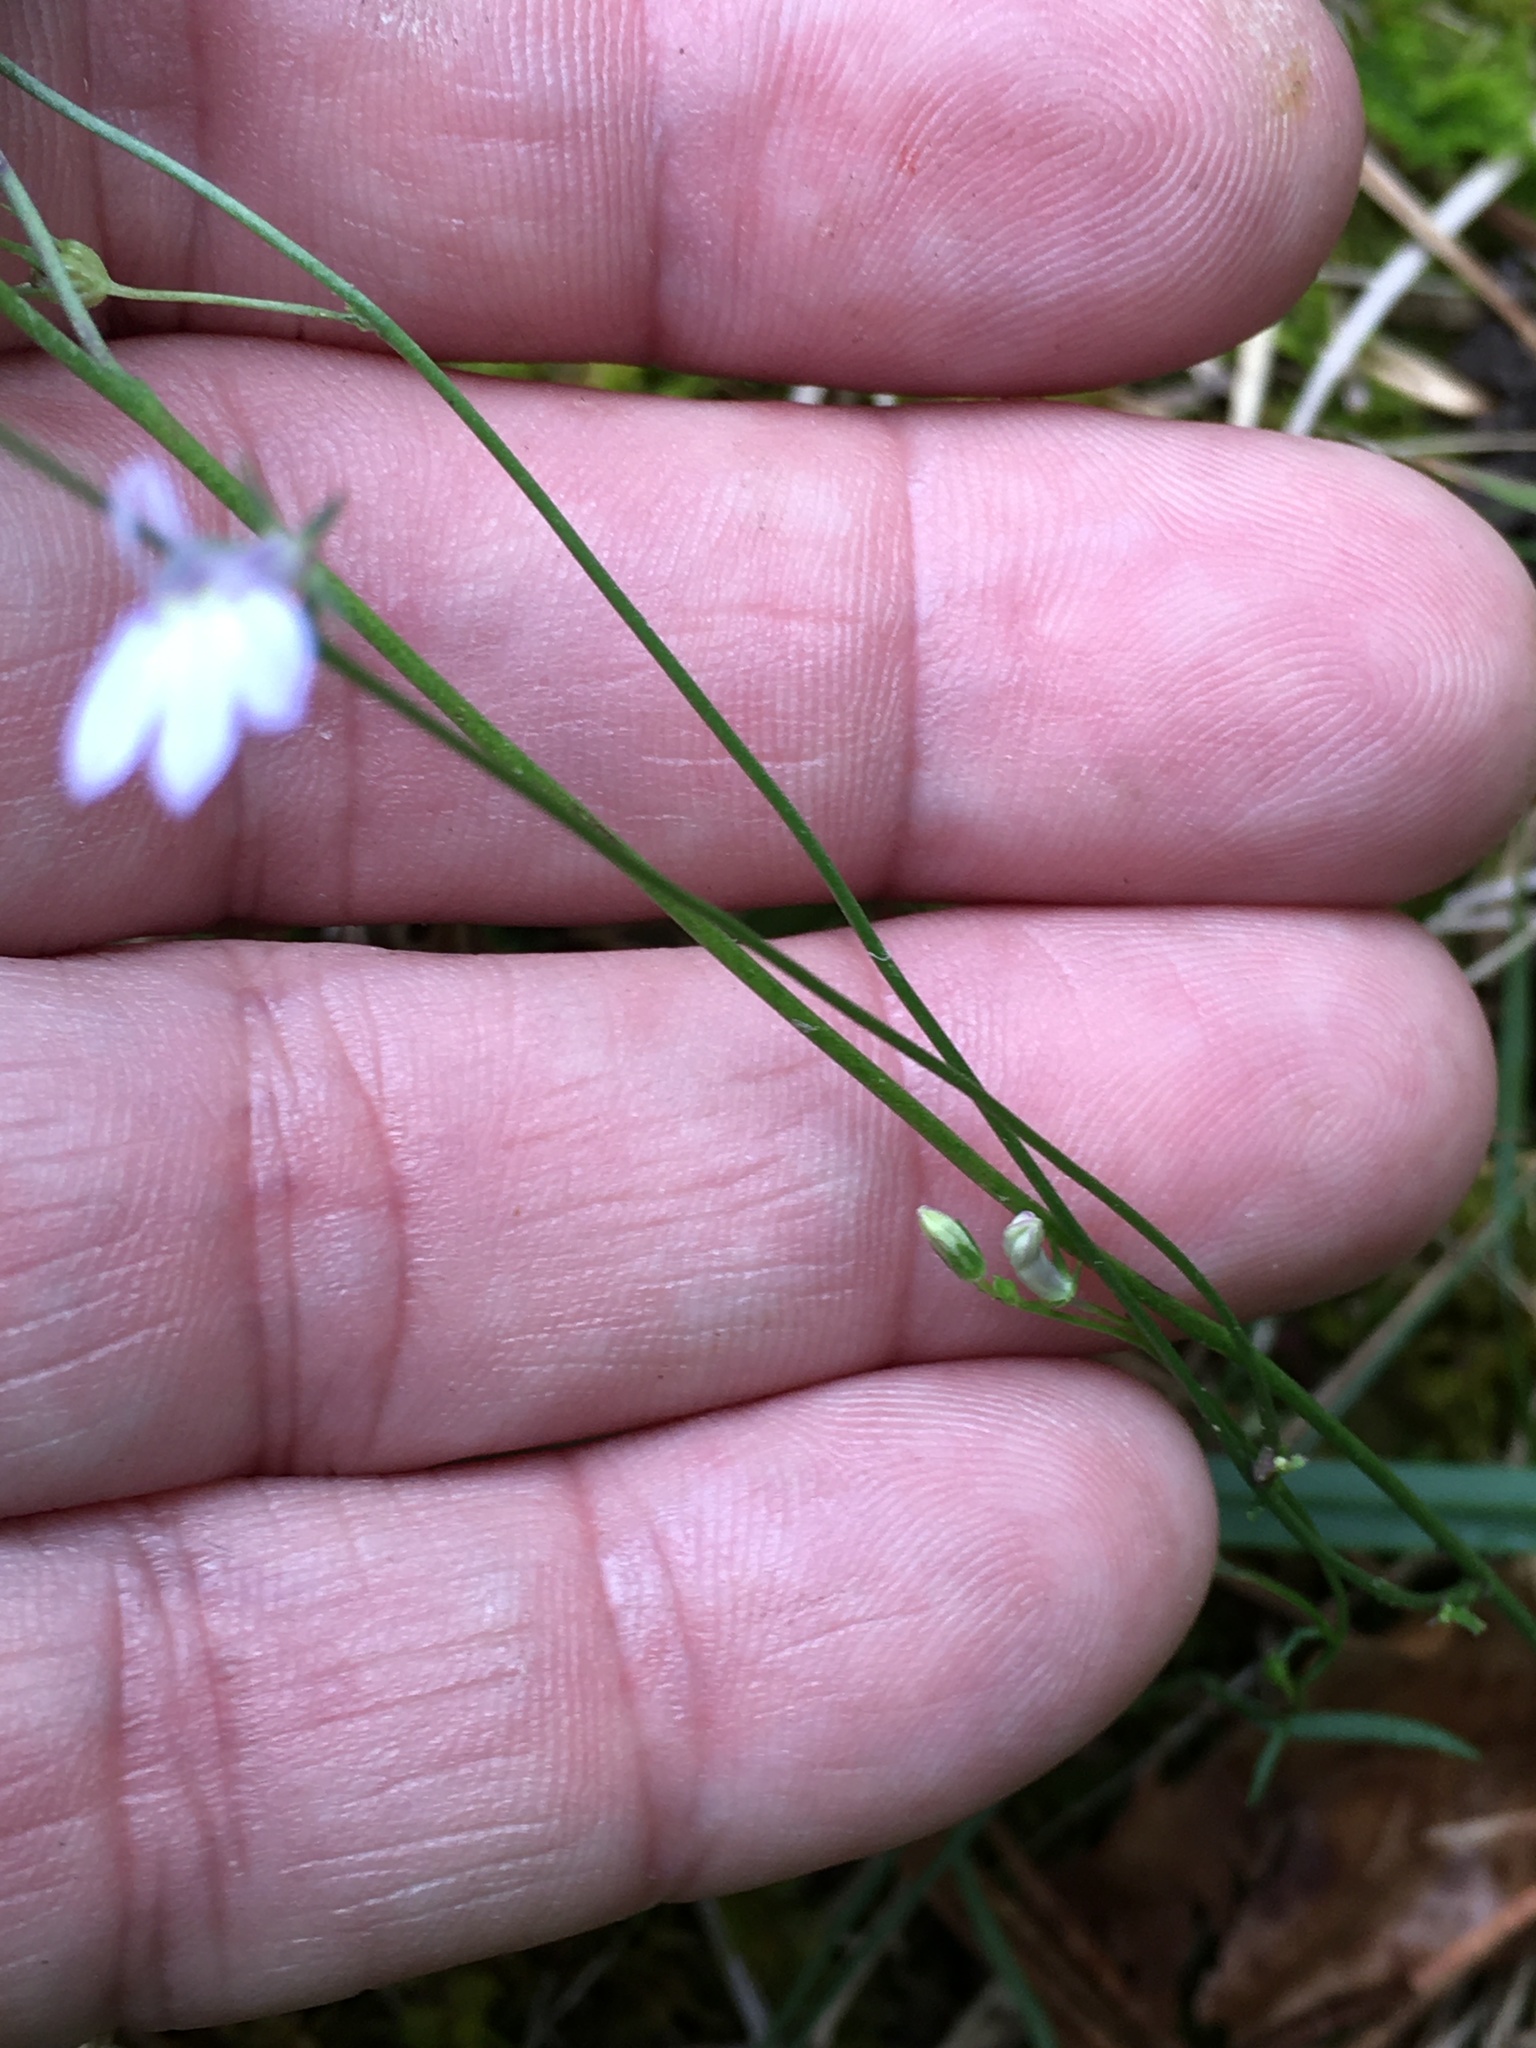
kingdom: Plantae
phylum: Tracheophyta
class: Magnoliopsida
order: Asterales
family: Campanulaceae
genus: Lobelia
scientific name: Lobelia nuttallii
